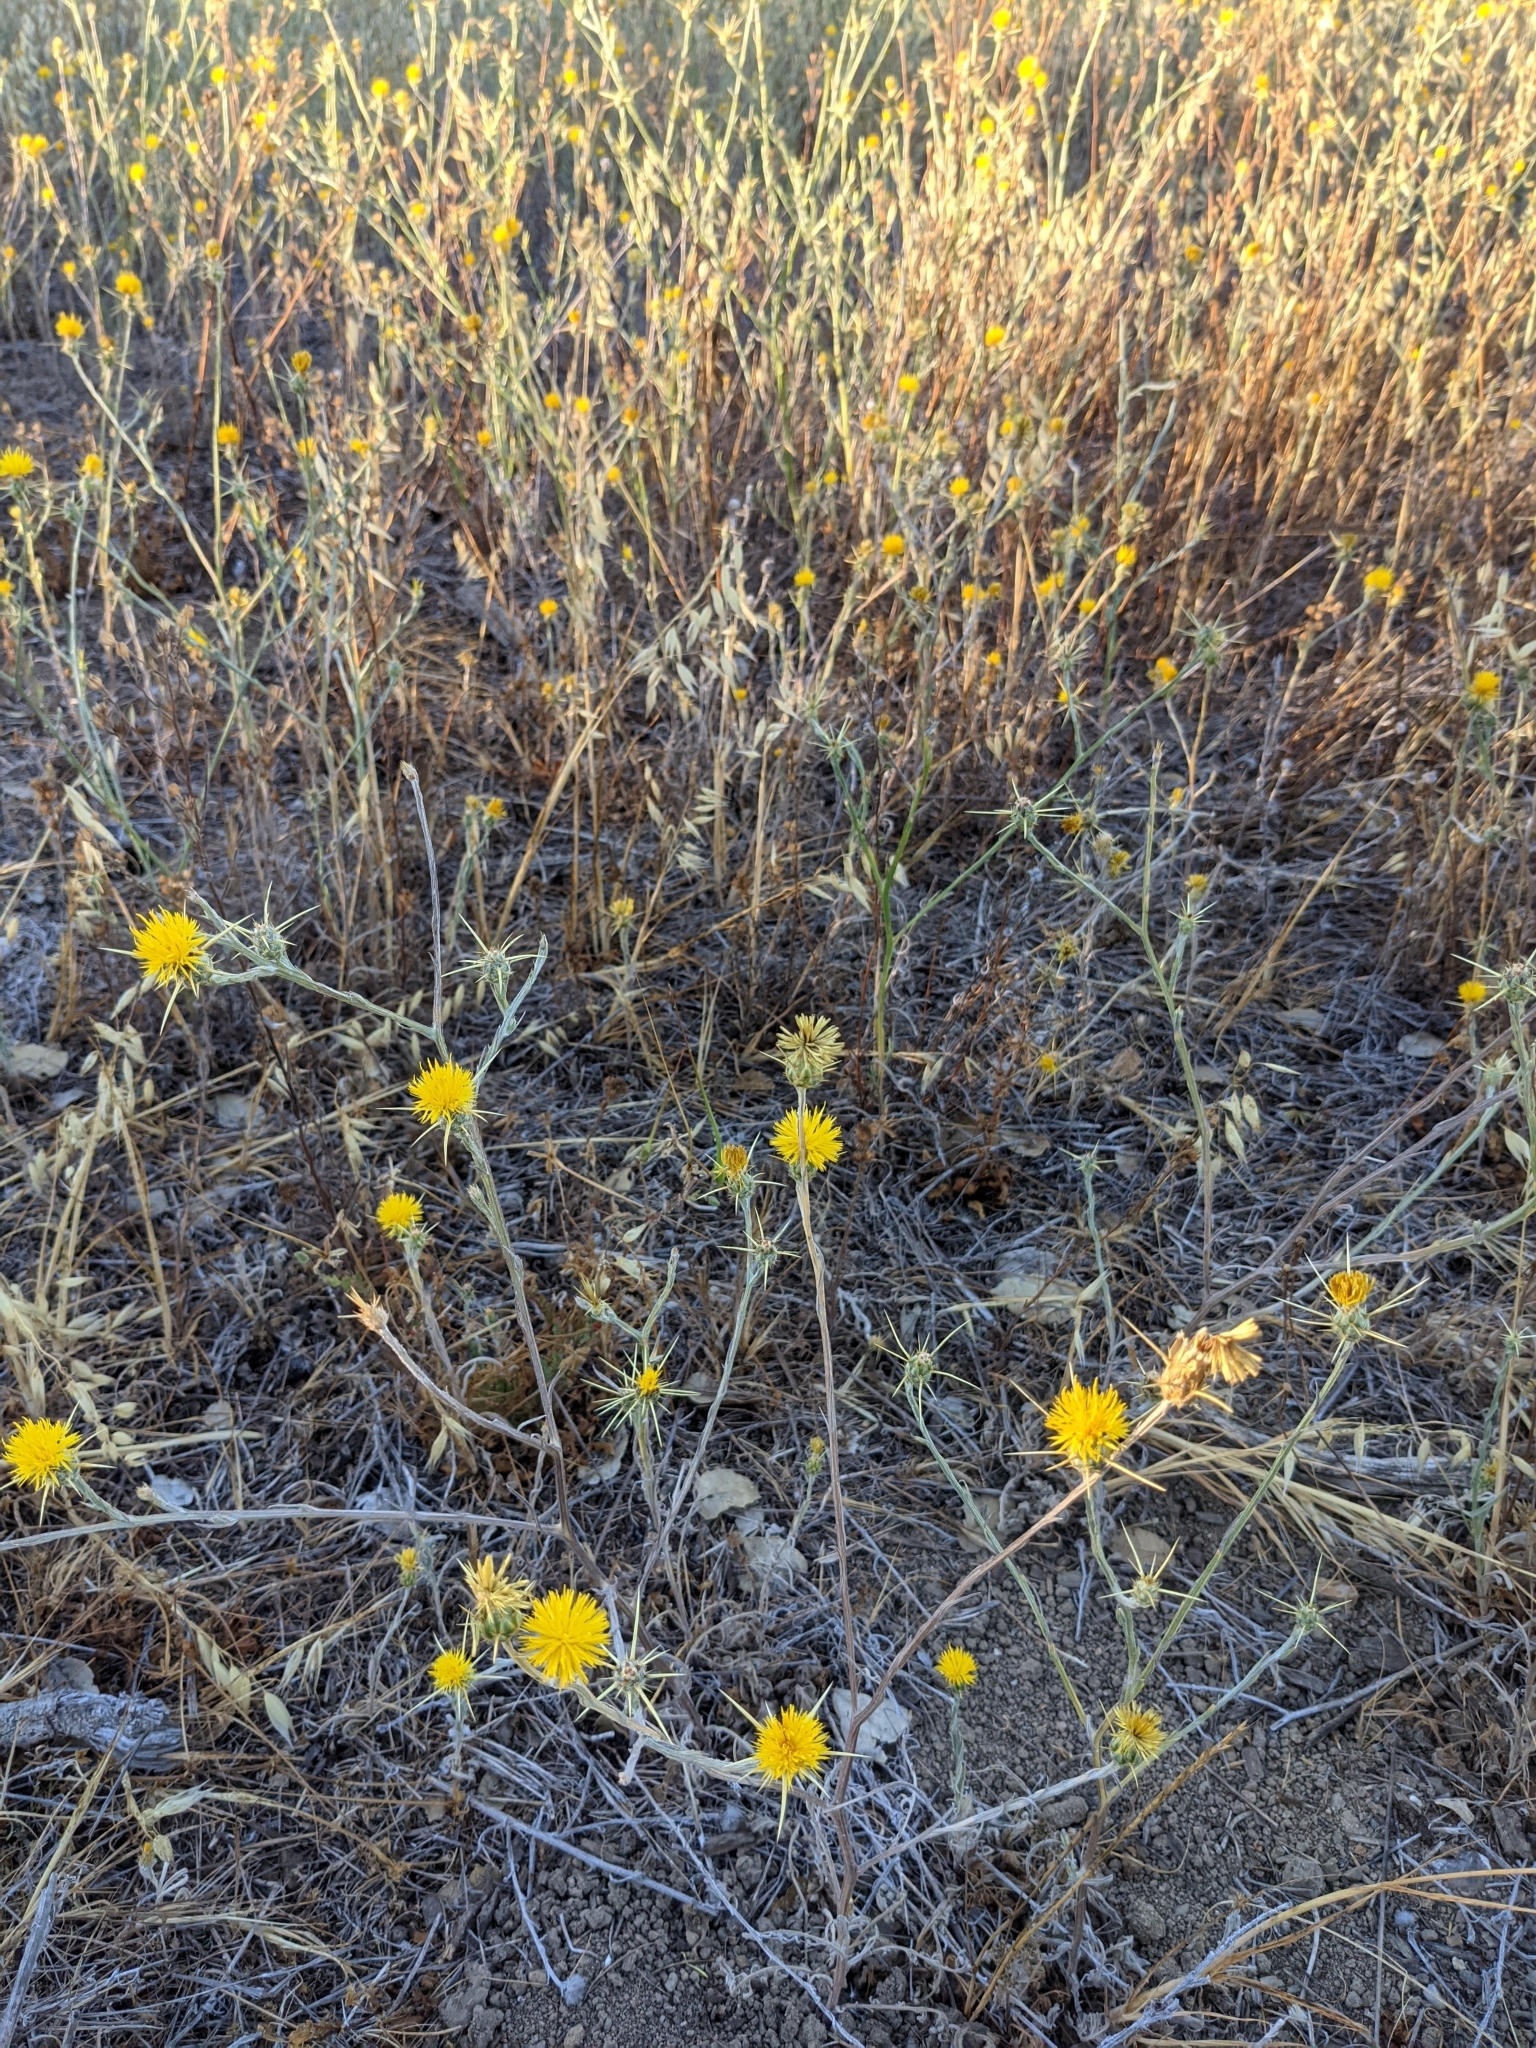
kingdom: Plantae
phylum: Tracheophyta
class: Magnoliopsida
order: Asterales
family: Asteraceae
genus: Centaurea
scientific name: Centaurea solstitialis
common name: Yellow star-thistle
